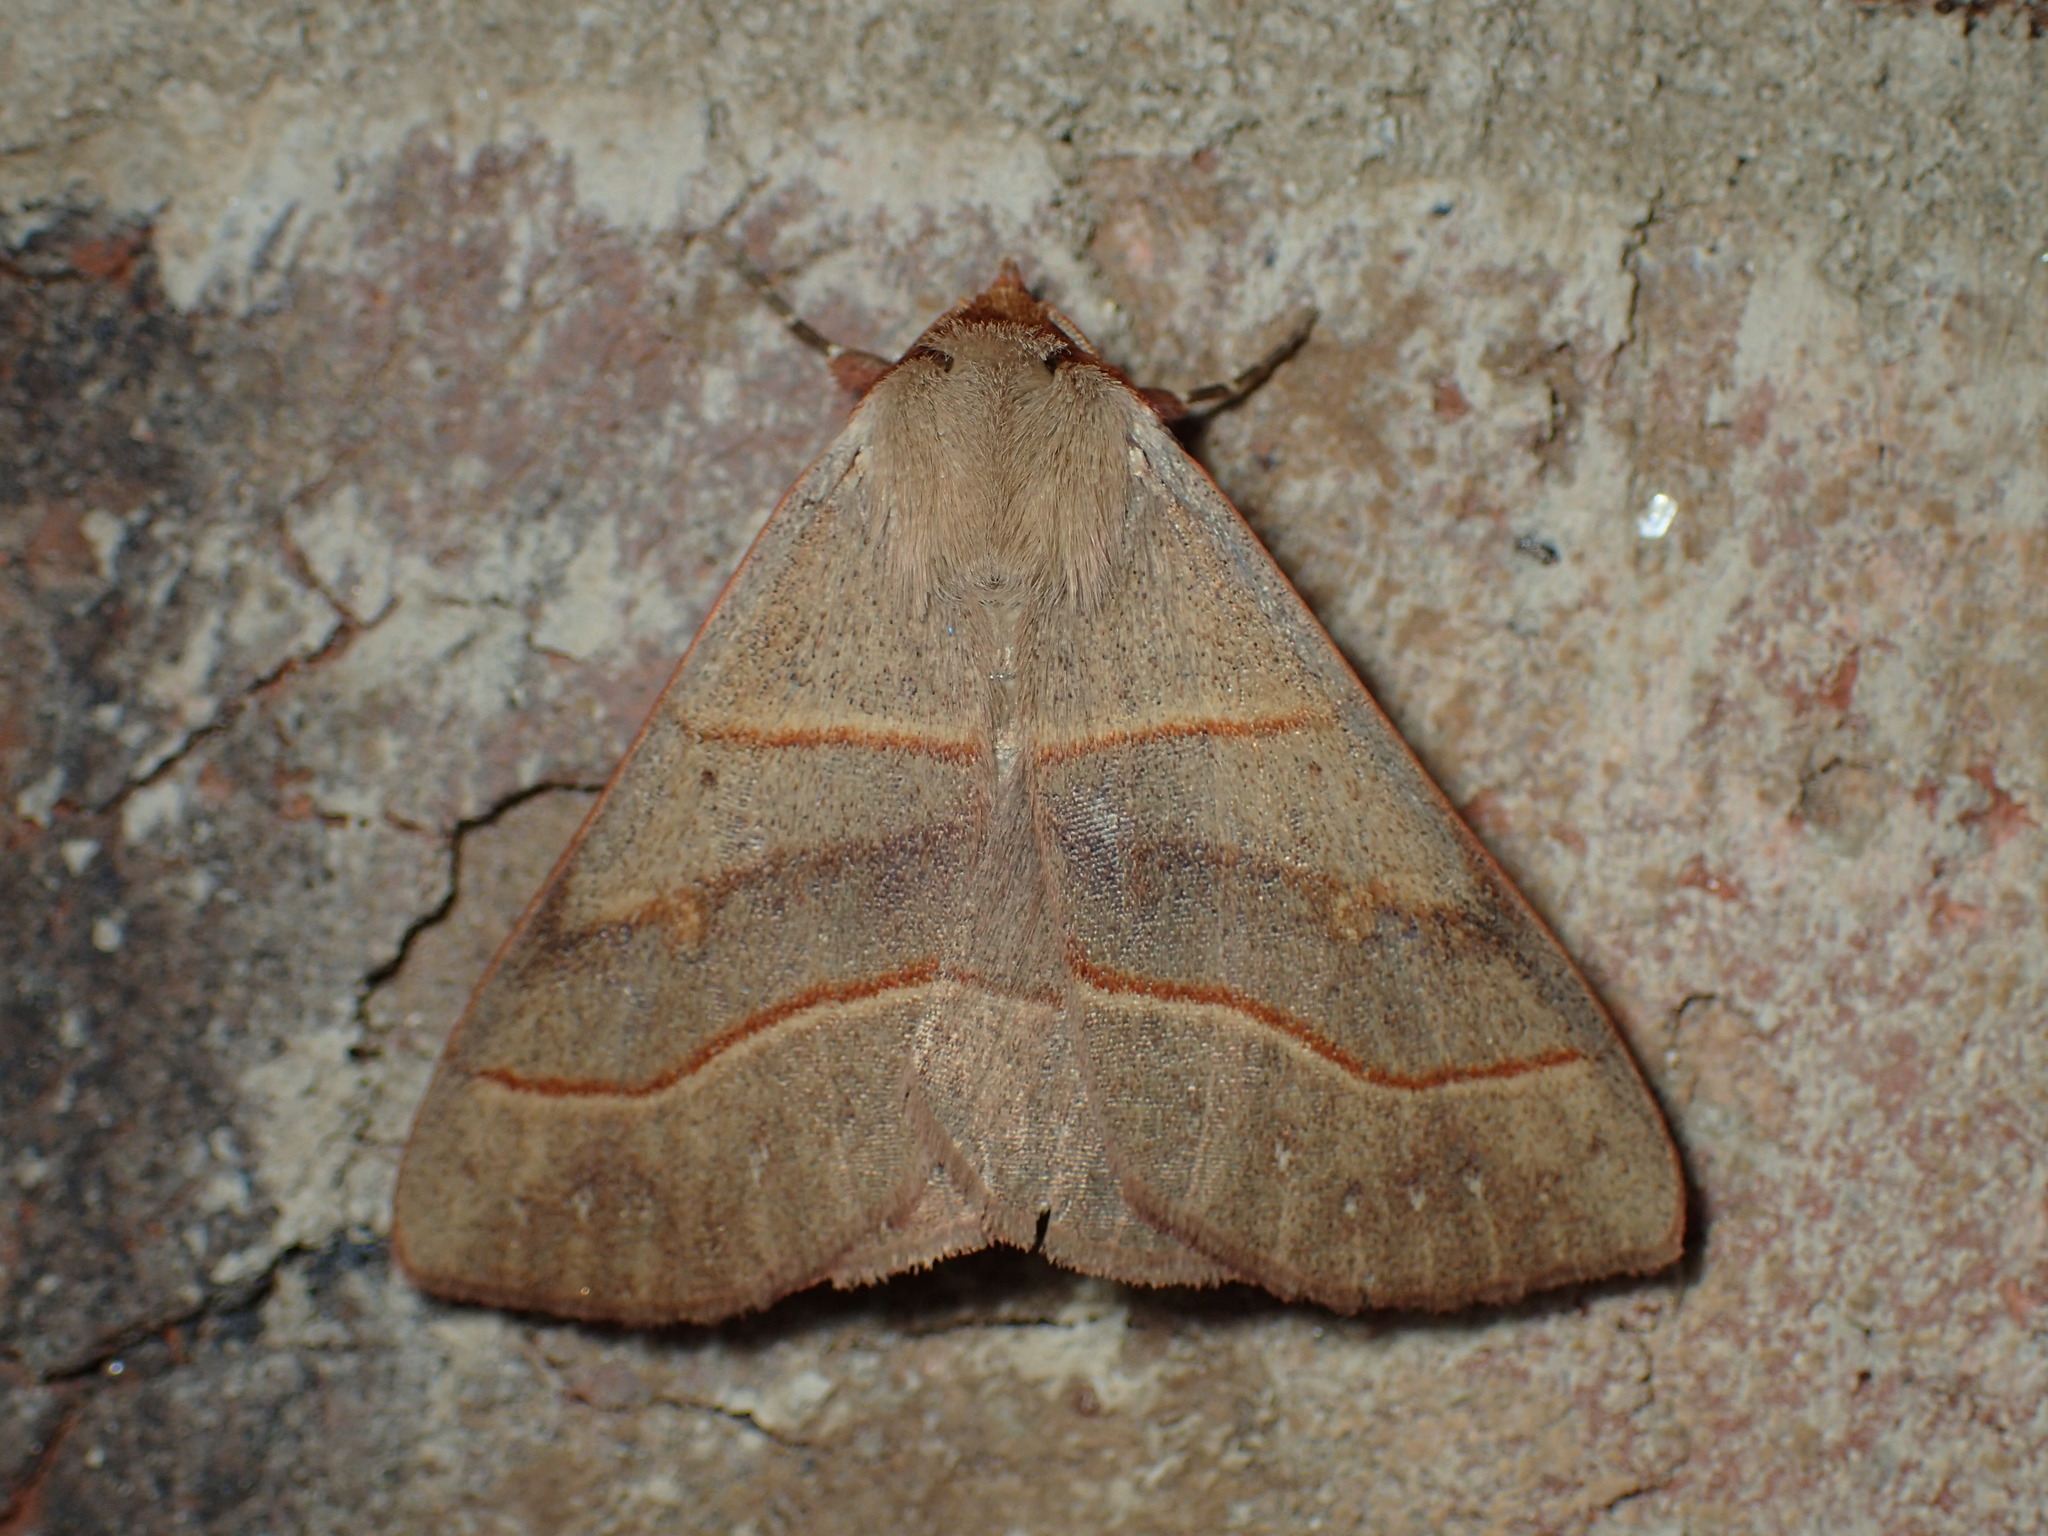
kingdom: Animalia
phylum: Arthropoda
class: Insecta
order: Lepidoptera
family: Erebidae
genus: Panopoda
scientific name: Panopoda rufimargo
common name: Red-lined panopoda moth
